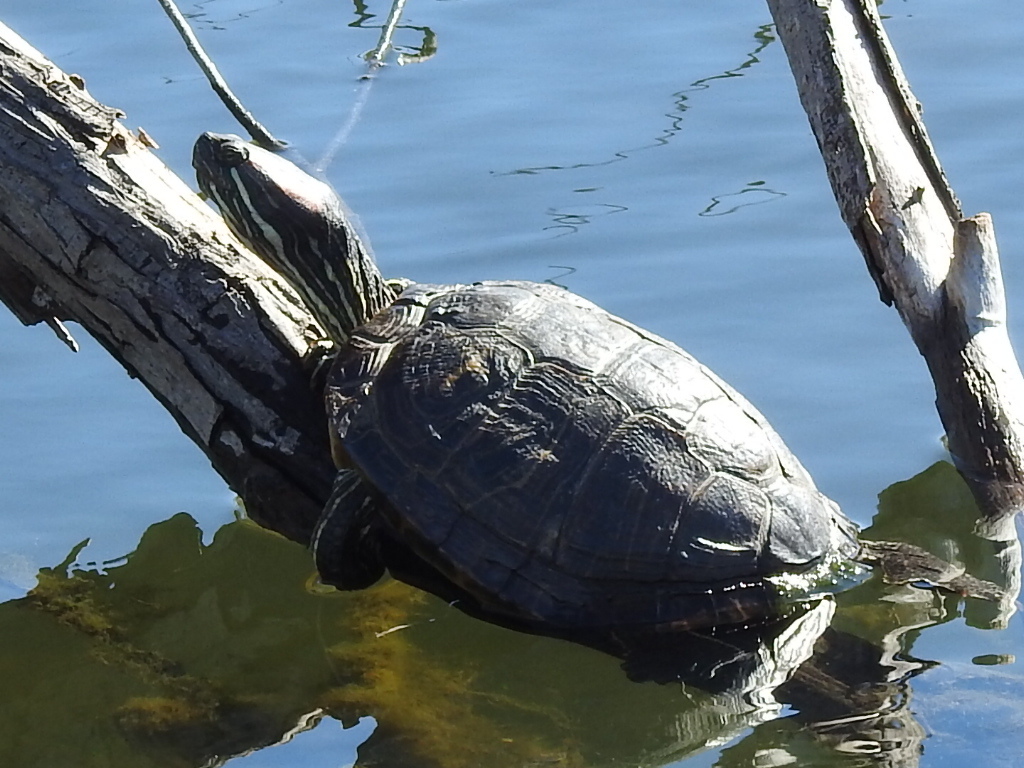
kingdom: Animalia
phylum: Chordata
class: Testudines
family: Emydidae
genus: Trachemys
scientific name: Trachemys scripta
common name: Slider
